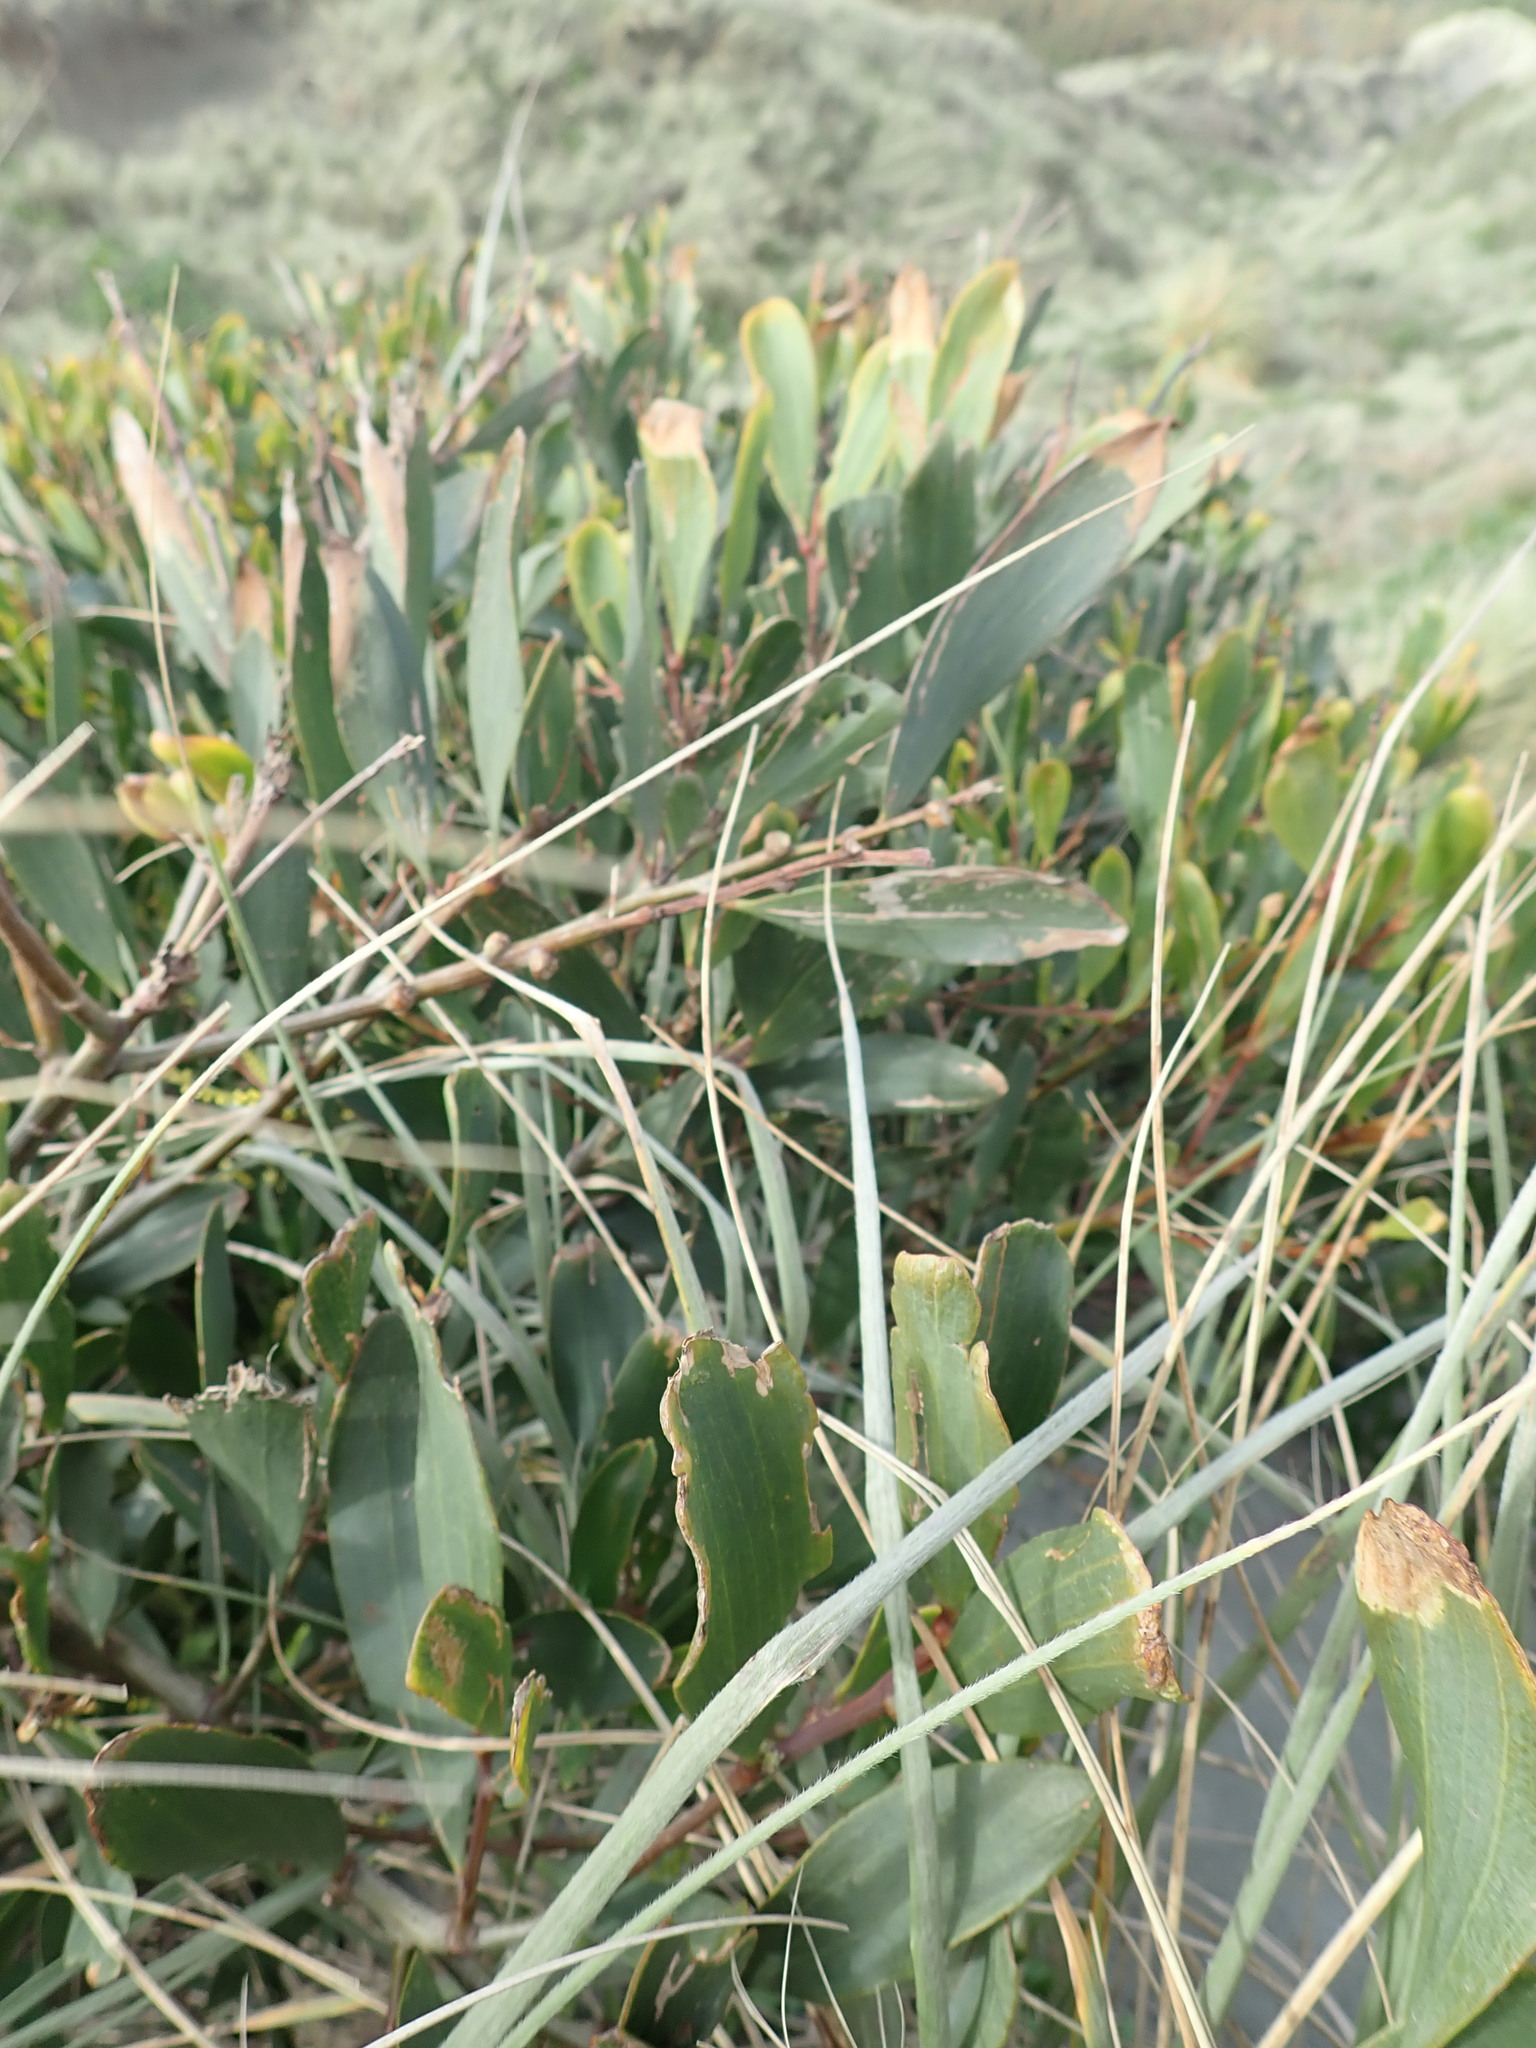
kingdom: Plantae
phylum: Tracheophyta
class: Magnoliopsida
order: Fabales
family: Fabaceae
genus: Acacia
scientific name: Acacia longifolia
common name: Sydney golden wattle
